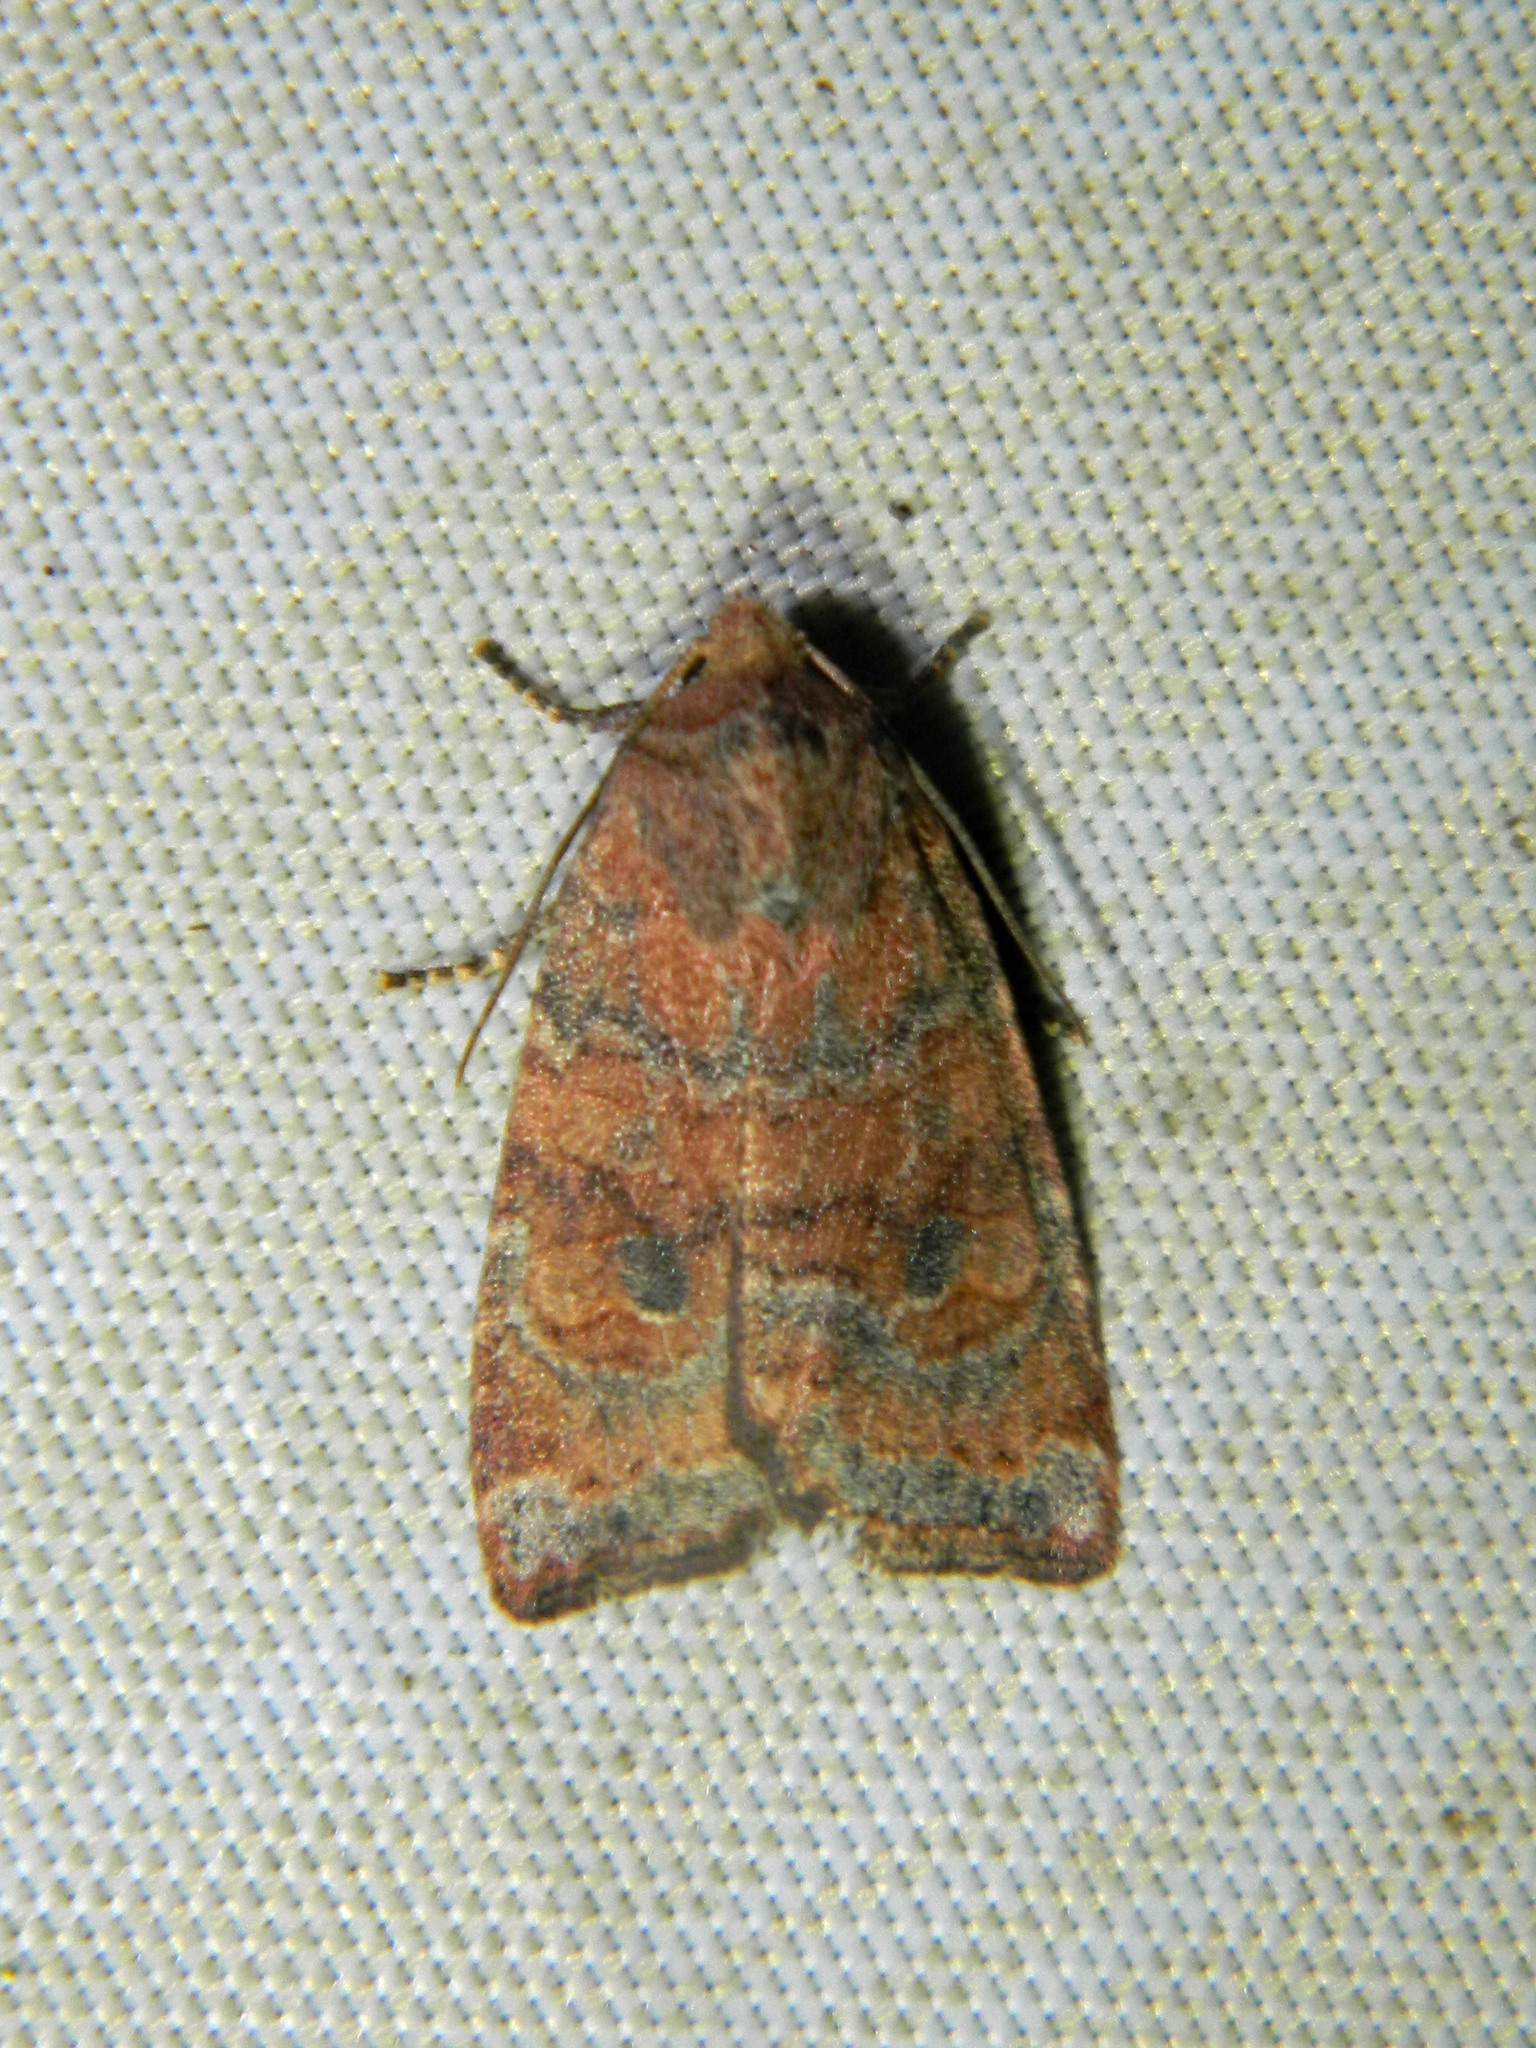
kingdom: Animalia
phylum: Arthropoda
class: Insecta
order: Lepidoptera
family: Noctuidae
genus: Anathix
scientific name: Anathix puta
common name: Puta sallow
